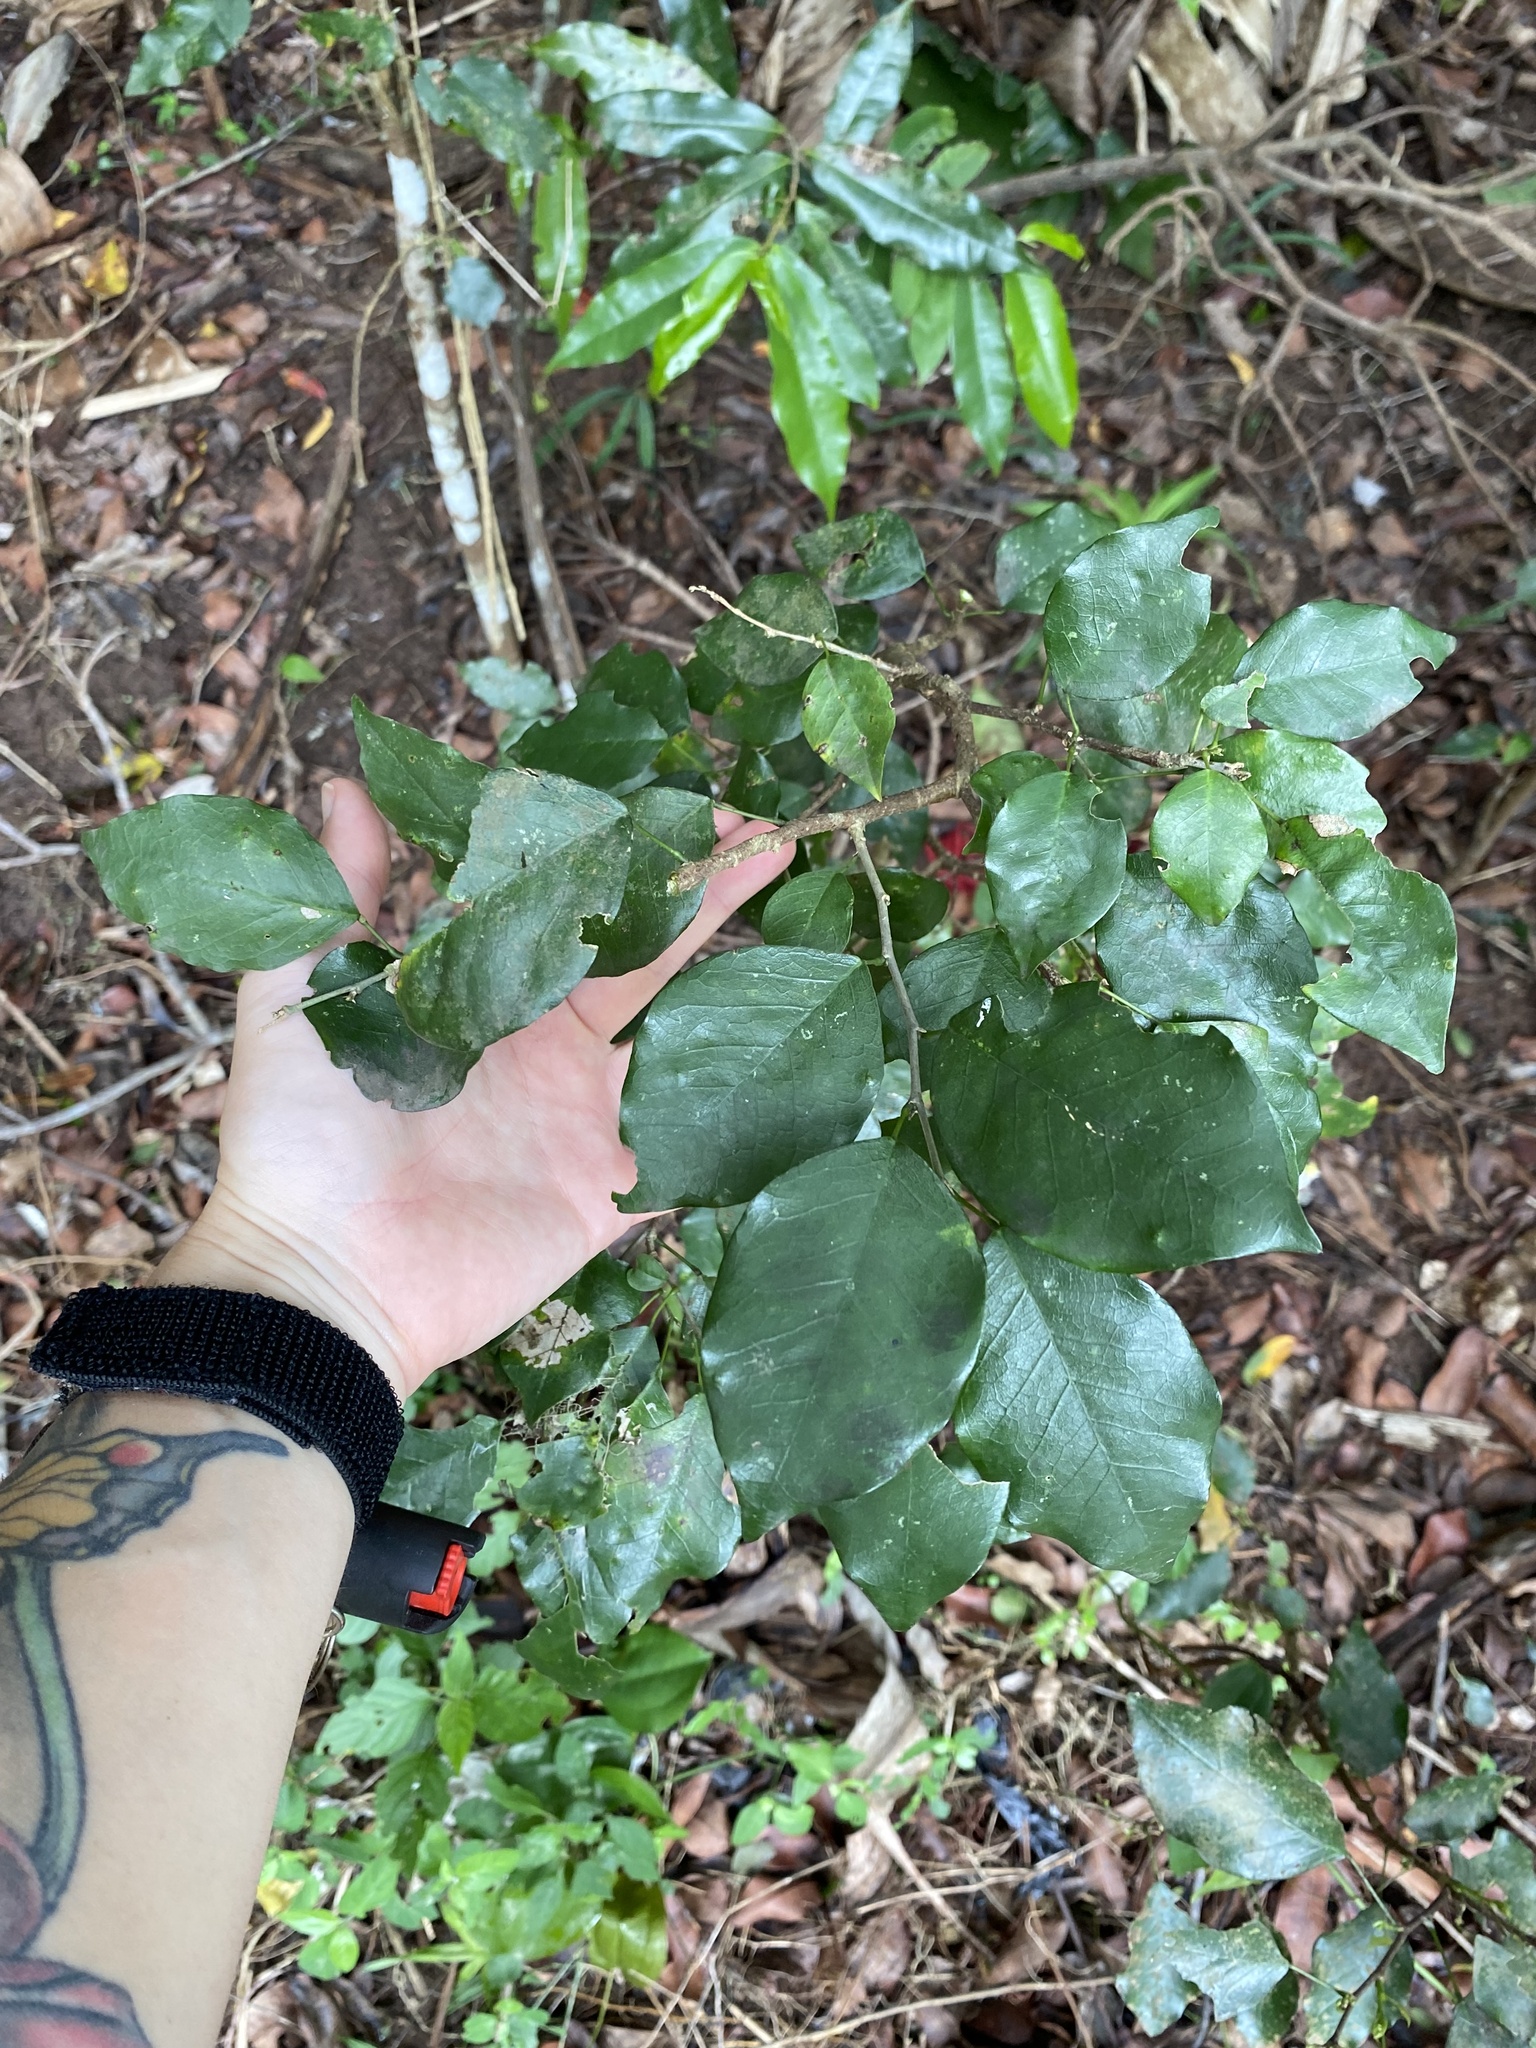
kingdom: Plantae
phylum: Tracheophyta
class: Magnoliopsida
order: Fabales
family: Fabaceae
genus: Bracteolaria
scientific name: Bracteolaria racemosa
